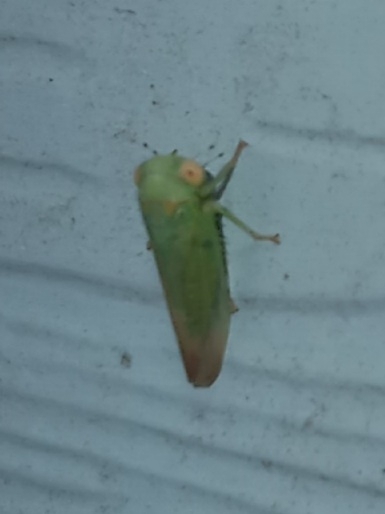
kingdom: Animalia
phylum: Arthropoda
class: Insecta
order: Hemiptera
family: Cicadellidae
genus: Idiocerus
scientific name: Idiocerus nervatus
